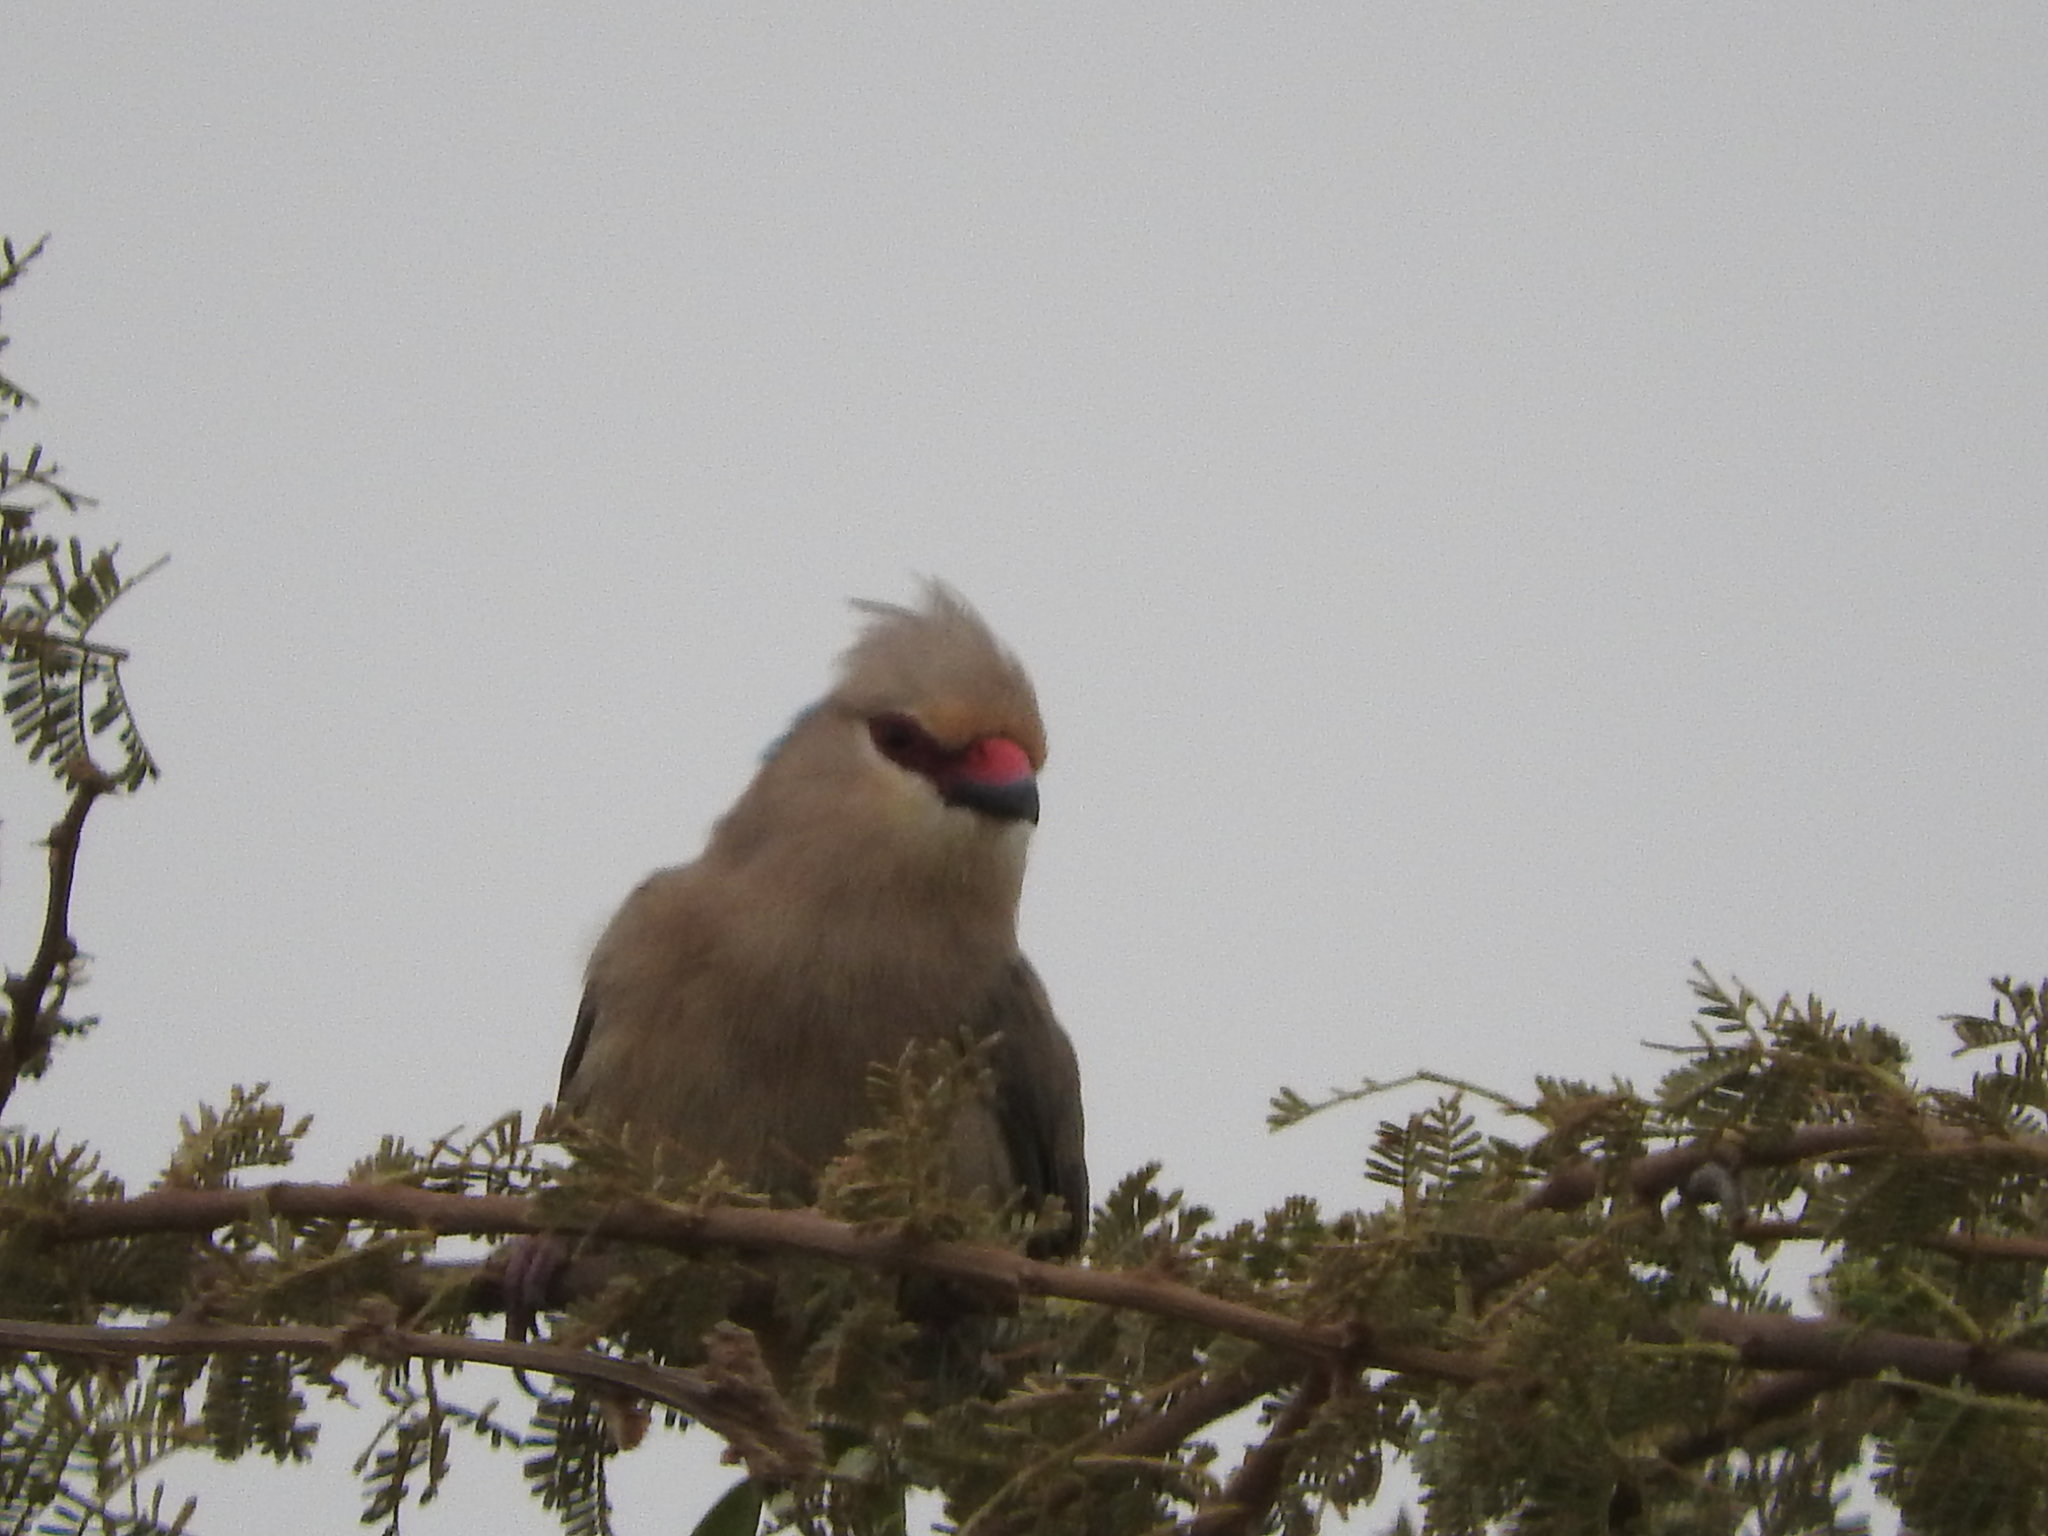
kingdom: Animalia
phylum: Chordata
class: Aves
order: Coliiformes
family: Coliidae
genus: Urocolius
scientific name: Urocolius macrourus
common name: Blue-naped mousebird
